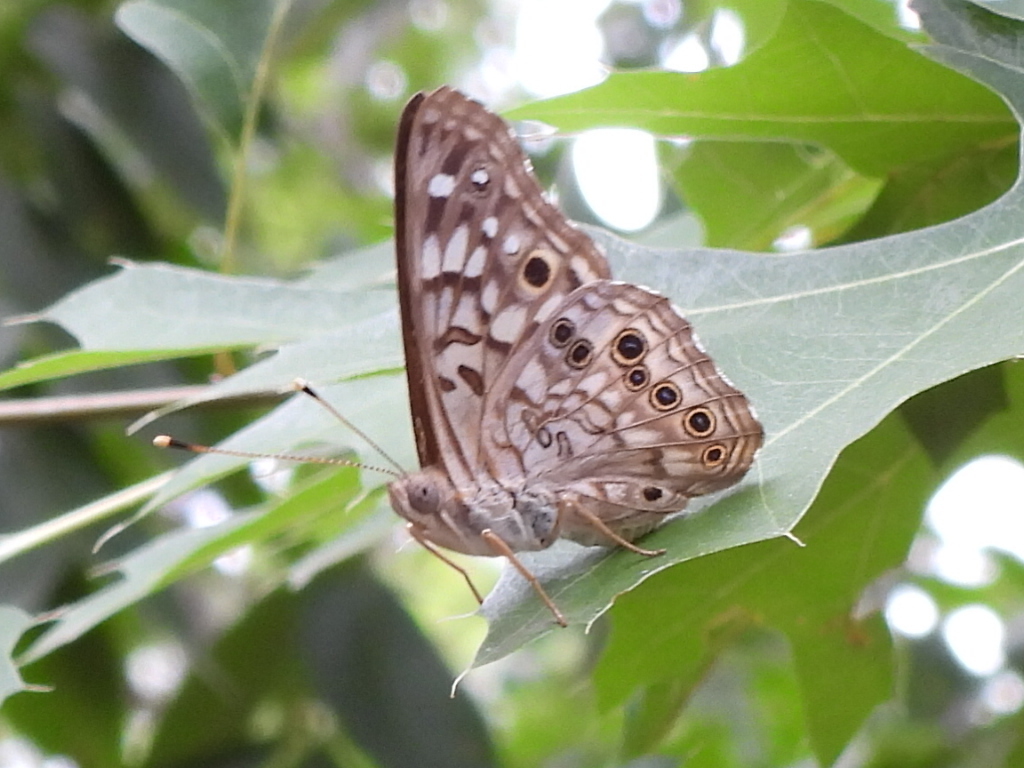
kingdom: Animalia
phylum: Arthropoda
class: Insecta
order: Lepidoptera
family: Nymphalidae
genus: Asterocampa
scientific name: Asterocampa celtis
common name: Hackberry emperor
